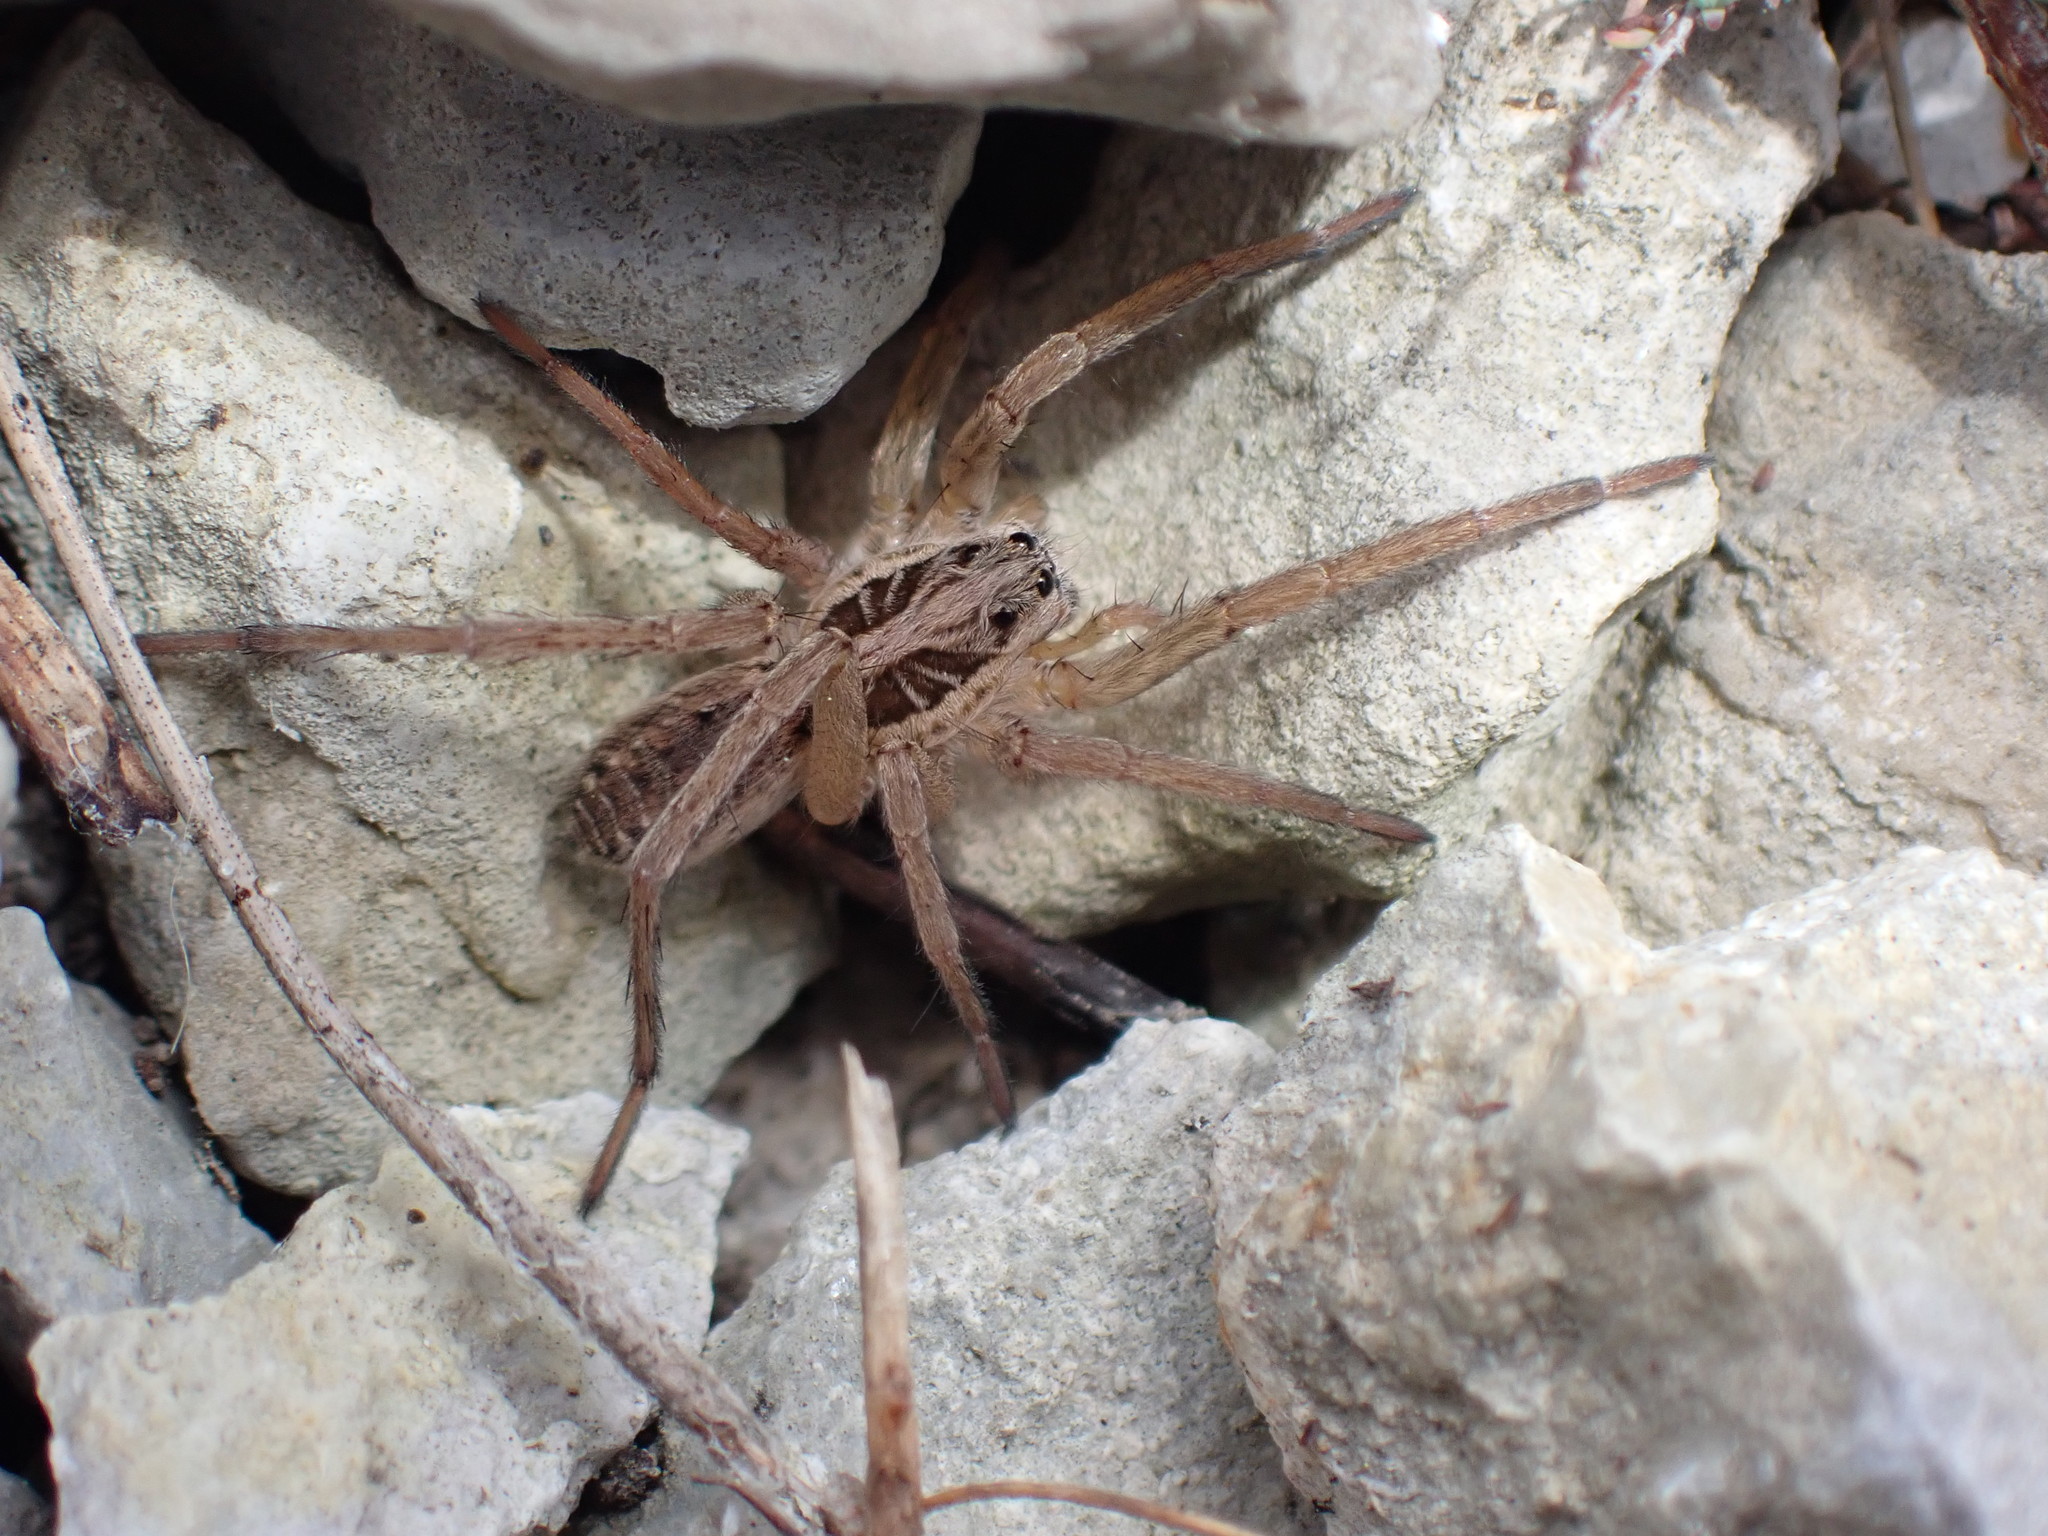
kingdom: Animalia
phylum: Arthropoda
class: Arachnida
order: Araneae
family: Lycosidae
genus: Hogna
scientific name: Hogna radiata
